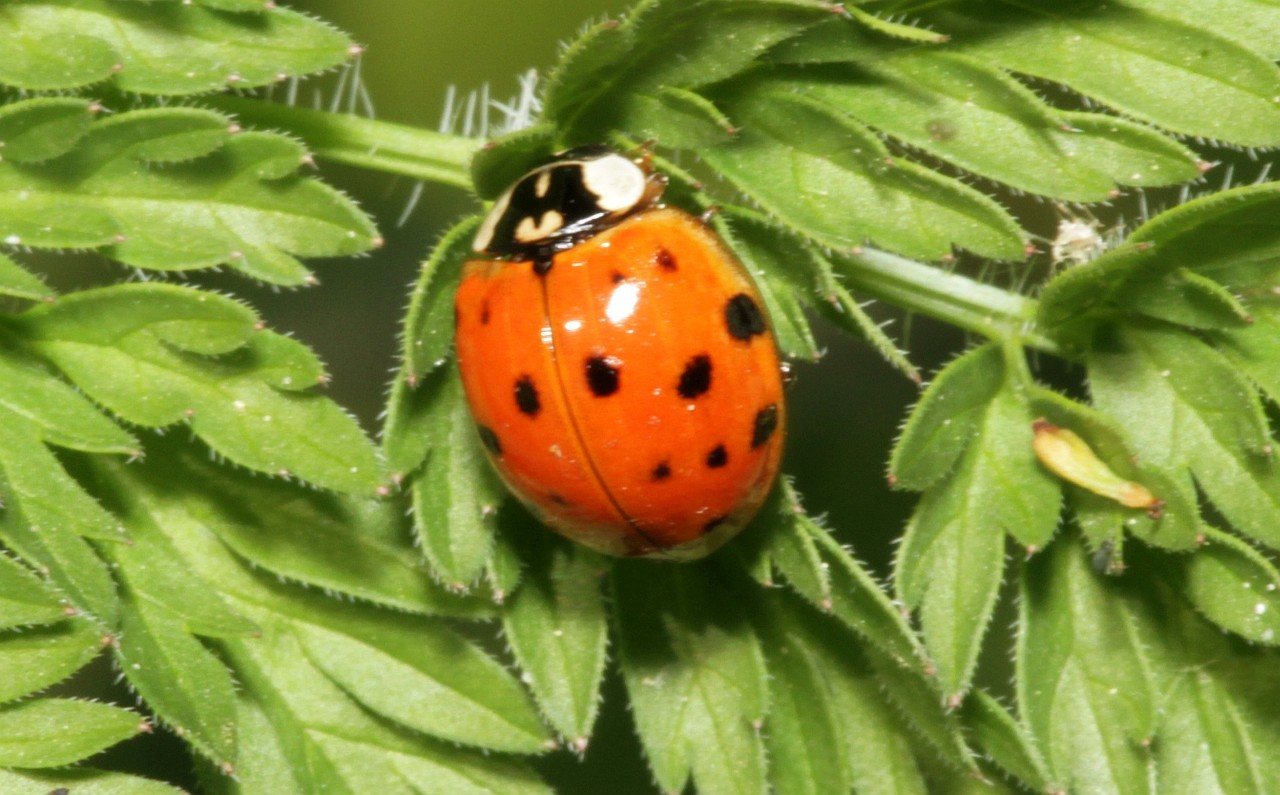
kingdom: Animalia
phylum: Arthropoda
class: Insecta
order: Coleoptera
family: Coccinellidae
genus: Harmonia
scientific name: Harmonia axyridis
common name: Harlequin ladybird
